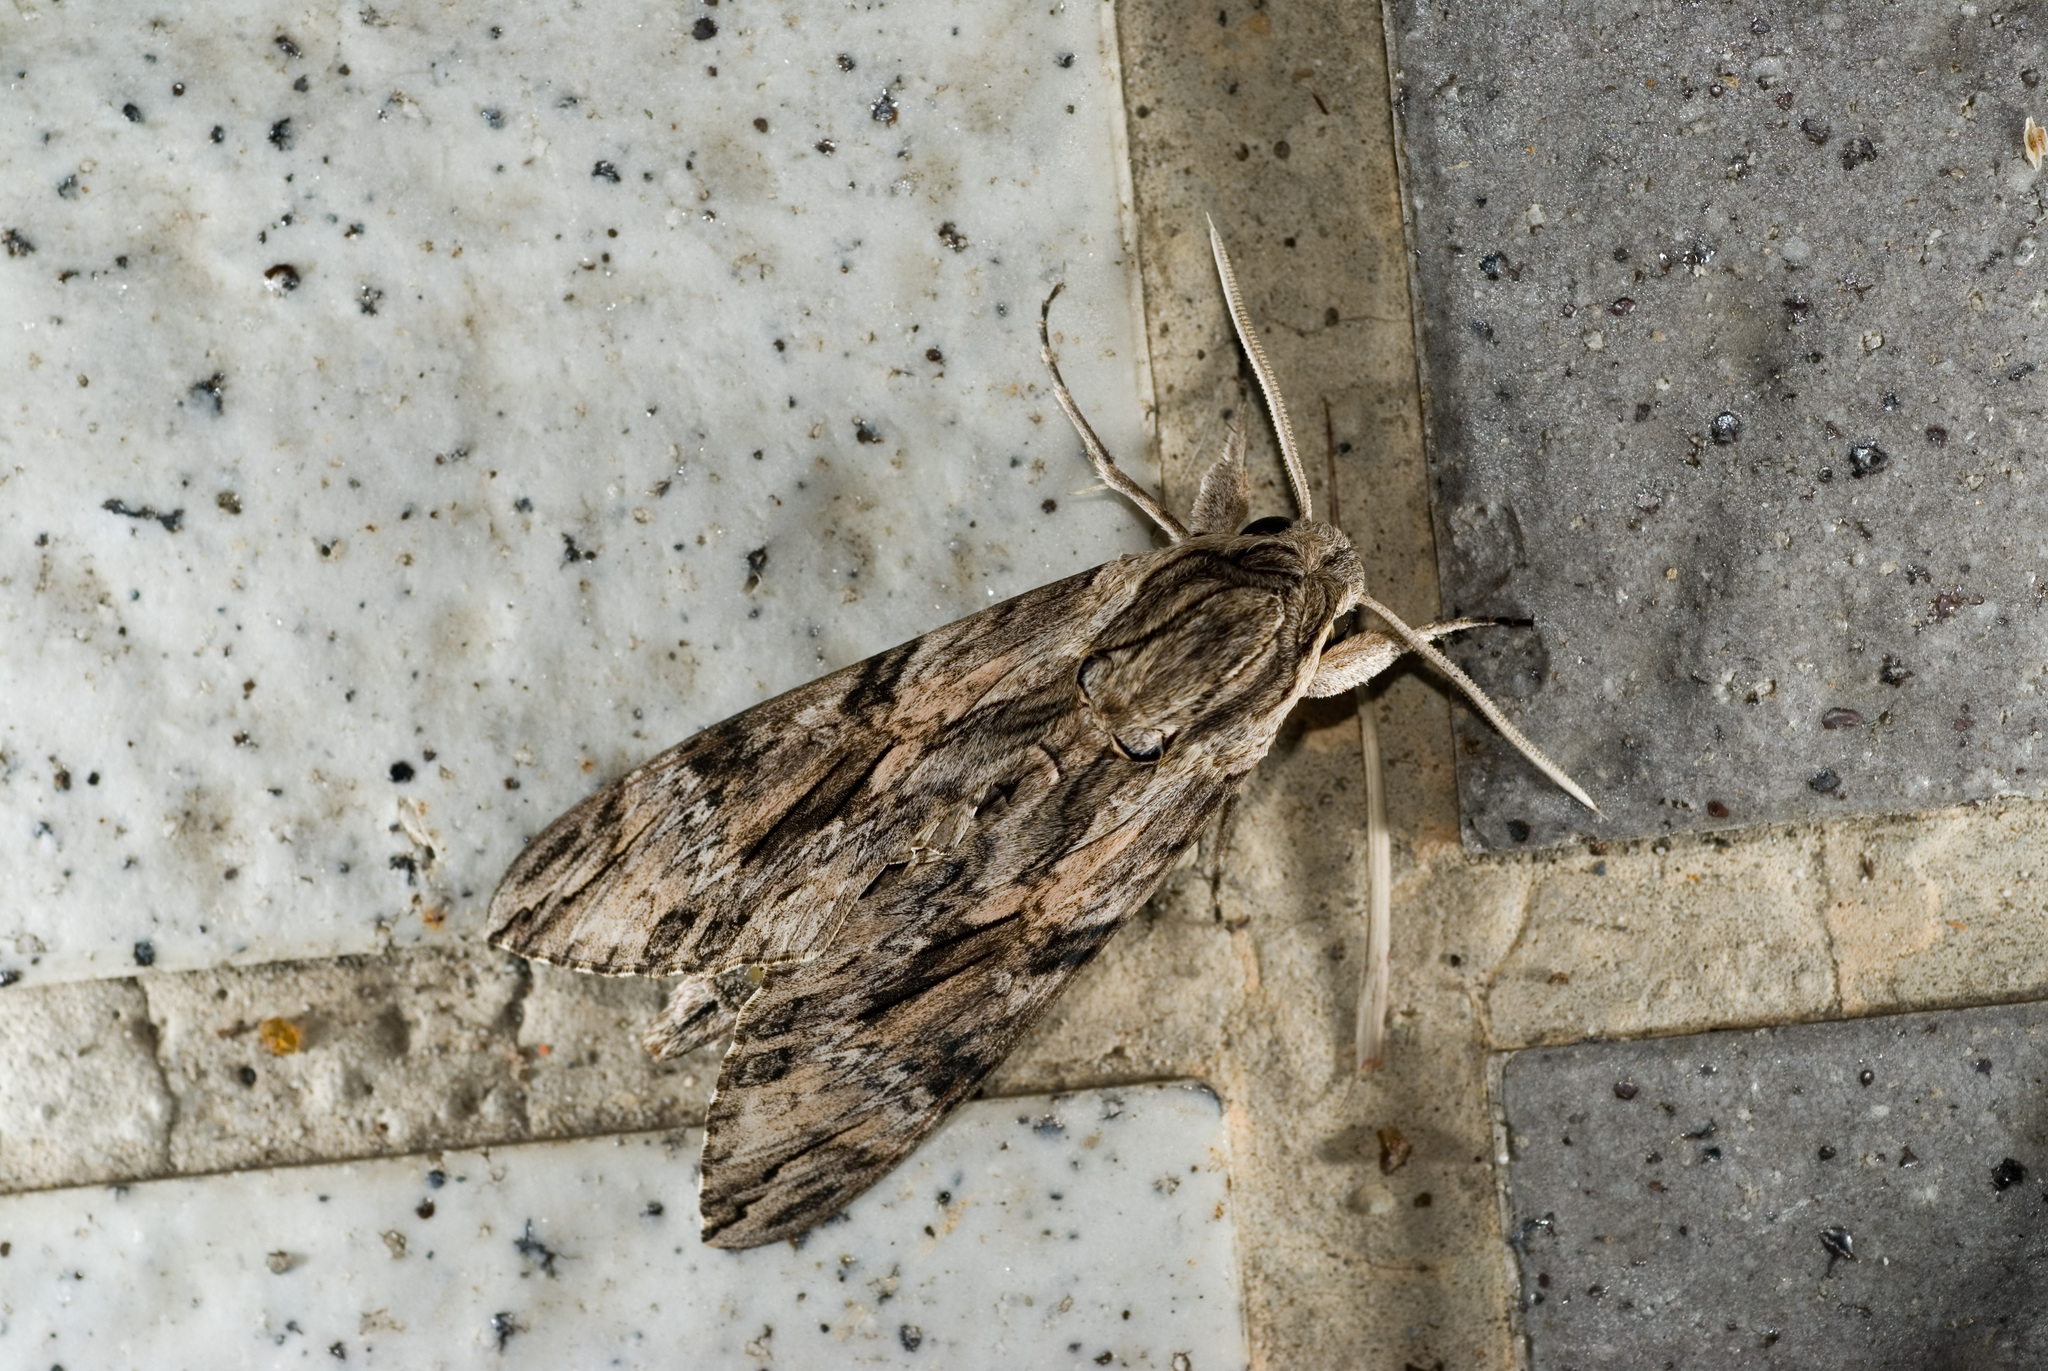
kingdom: Animalia
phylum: Arthropoda
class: Insecta
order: Lepidoptera
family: Sphingidae
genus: Agrius
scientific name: Agrius convolvuli
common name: Convolvulus hawkmoth
